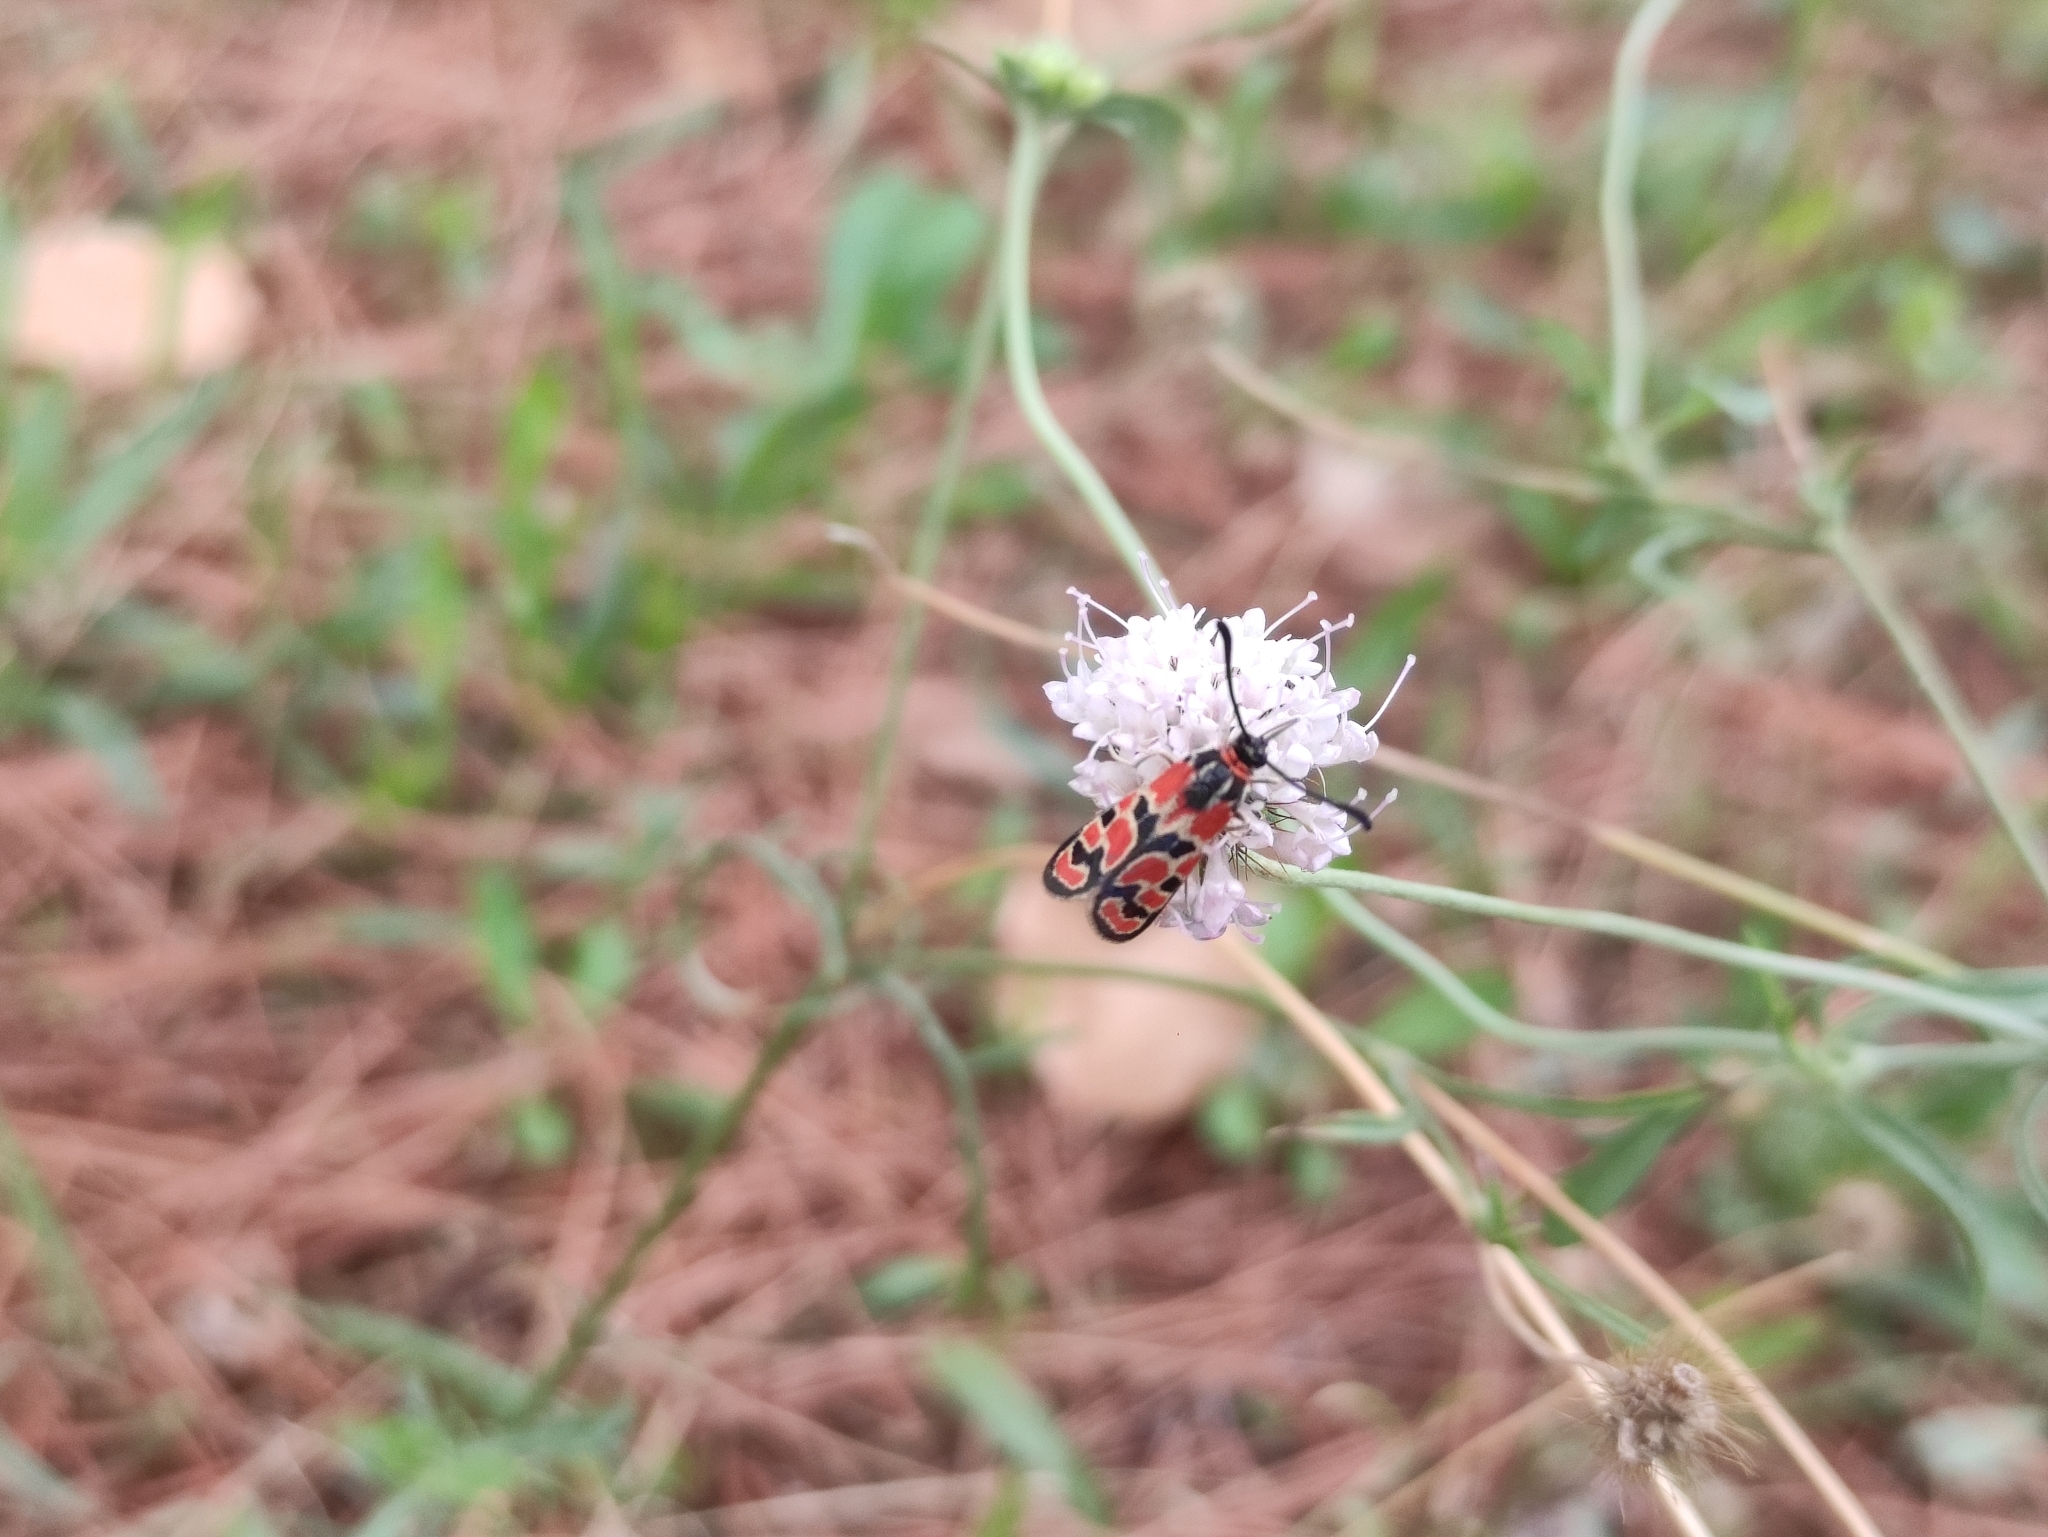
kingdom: Animalia
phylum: Arthropoda
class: Insecta
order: Lepidoptera
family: Zygaenidae
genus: Zygaena
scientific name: Zygaena fausta
